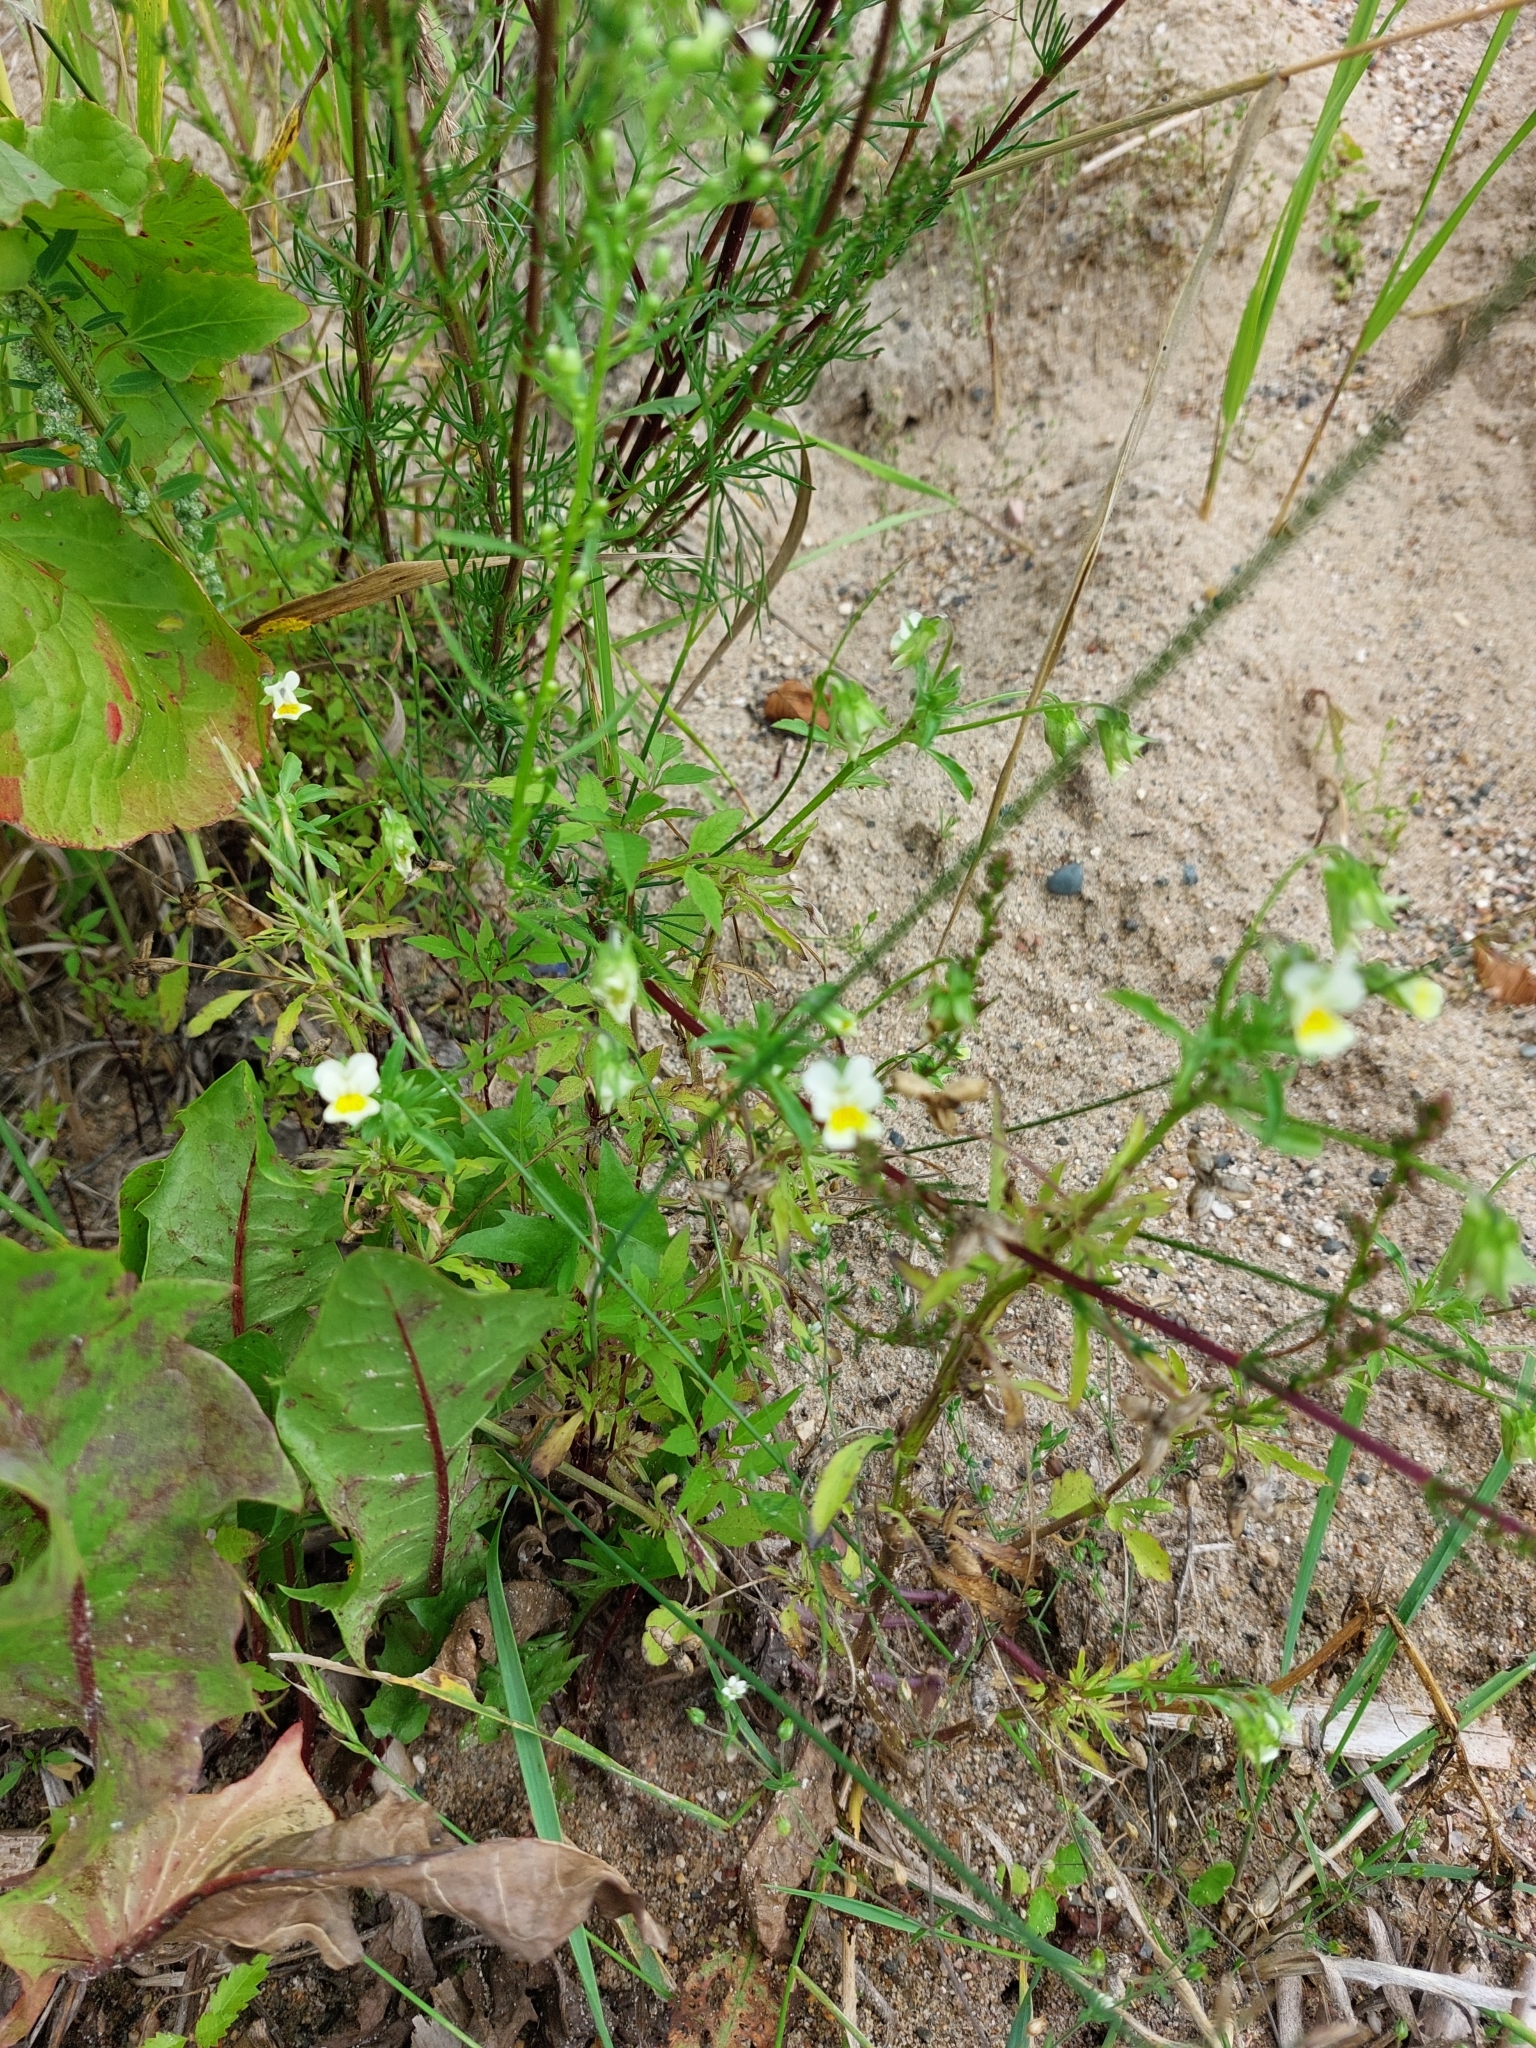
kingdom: Plantae
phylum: Tracheophyta
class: Magnoliopsida
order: Malpighiales
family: Violaceae
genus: Viola
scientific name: Viola arvensis
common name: Field pansy
